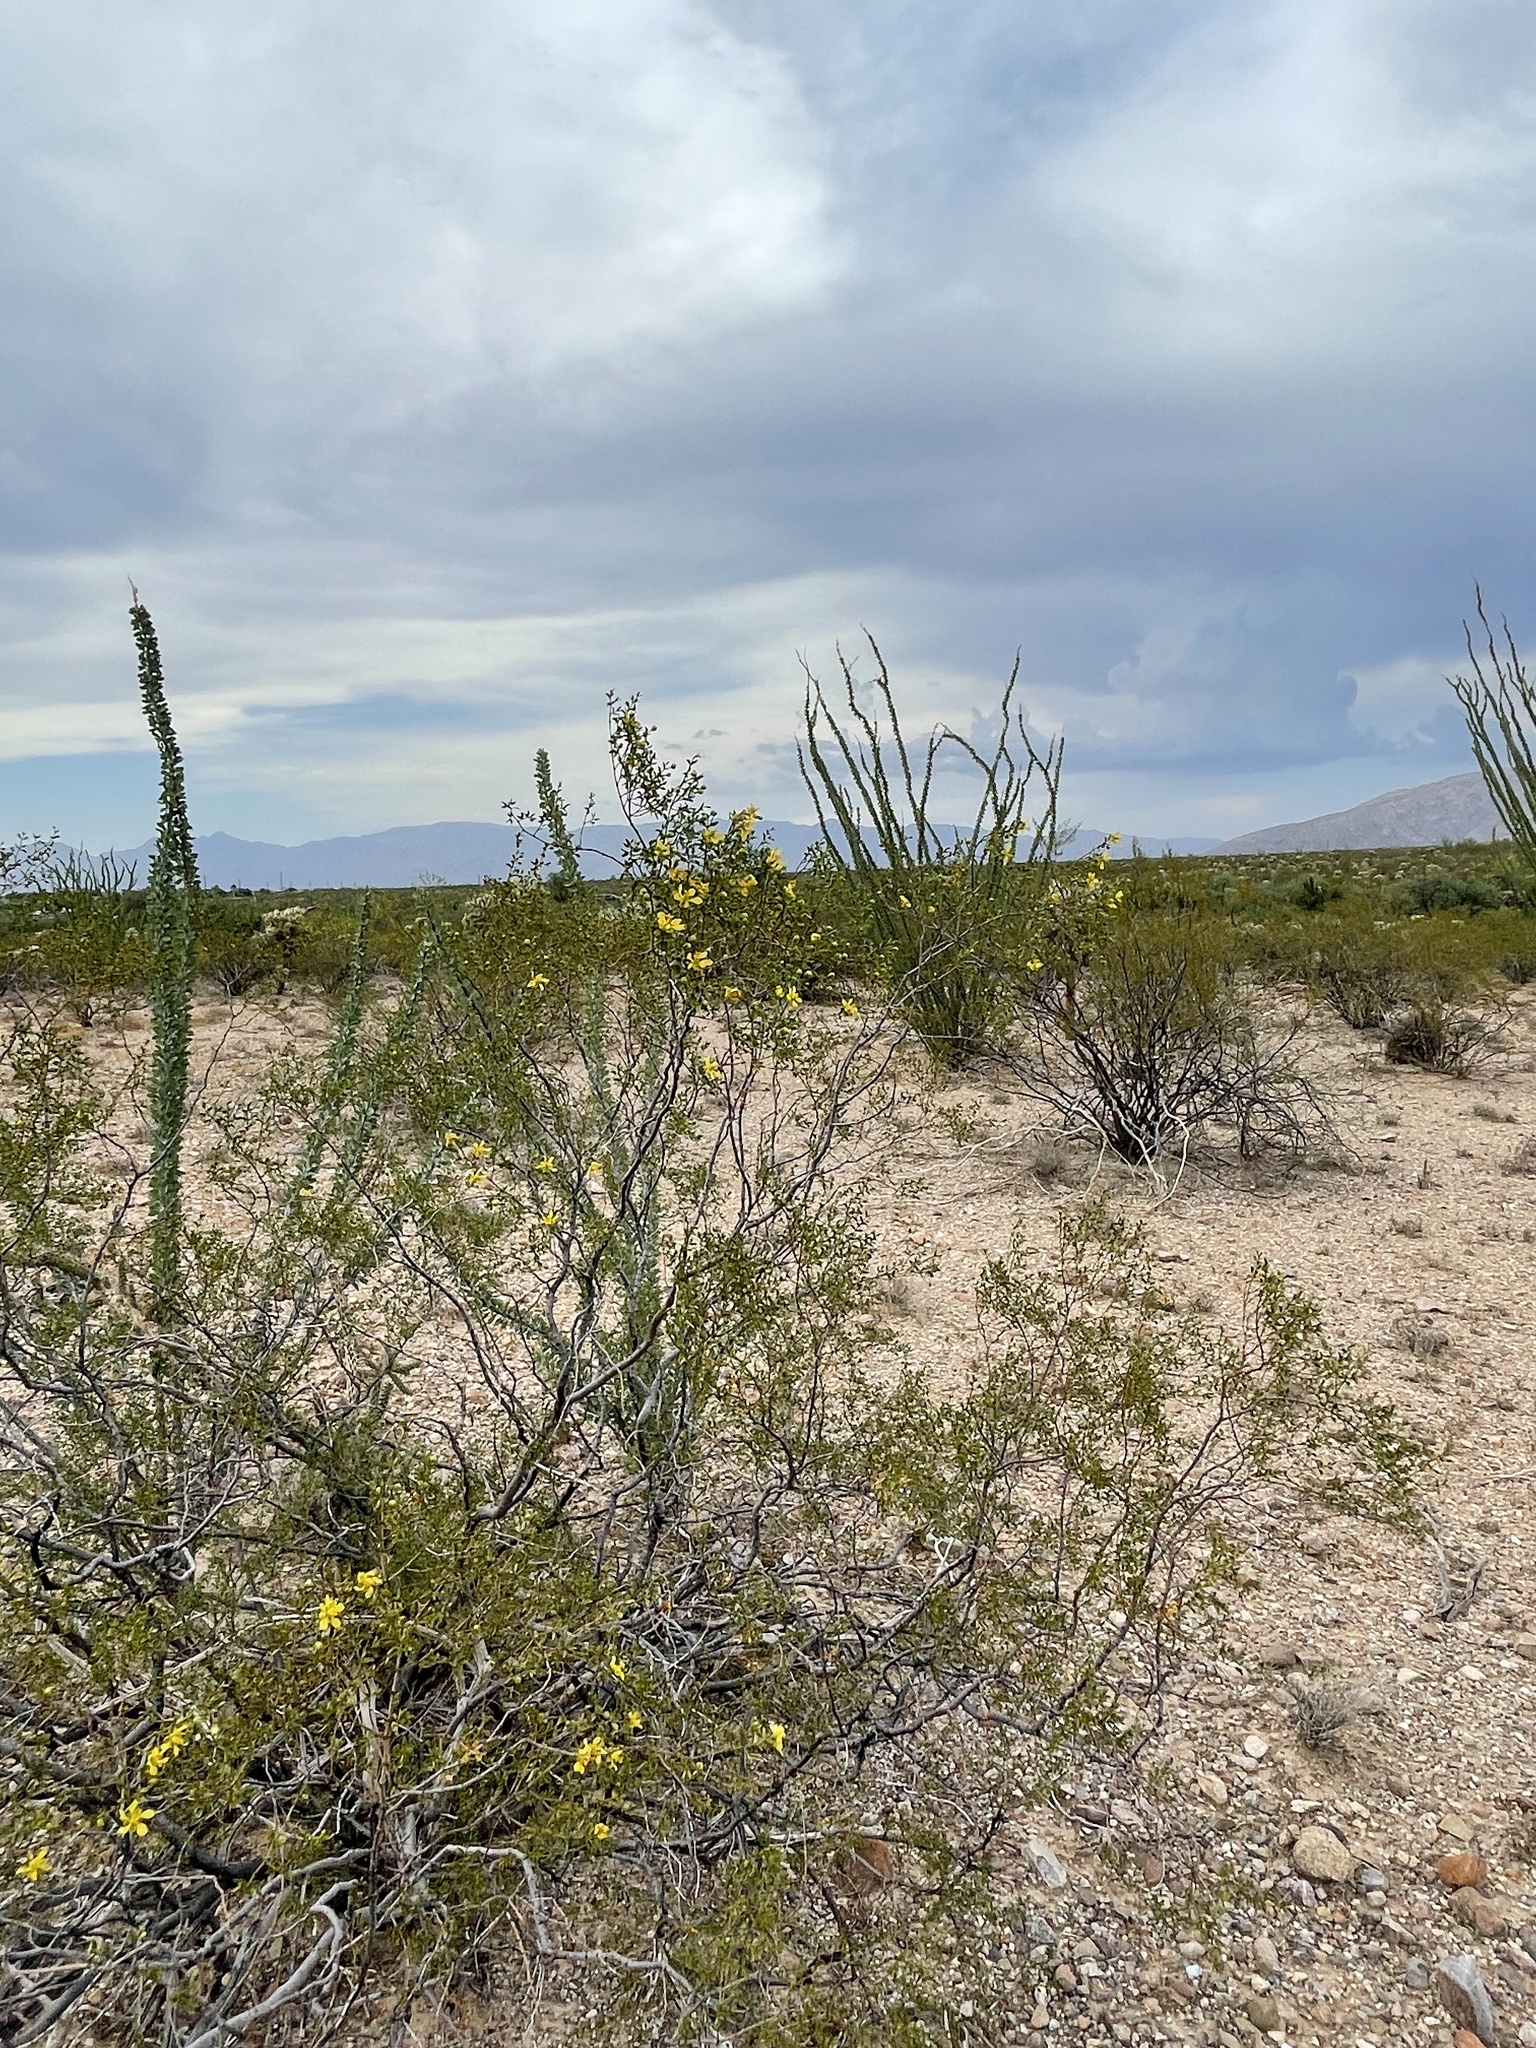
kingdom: Plantae
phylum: Tracheophyta
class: Magnoliopsida
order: Zygophyllales
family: Zygophyllaceae
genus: Larrea
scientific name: Larrea tridentata
